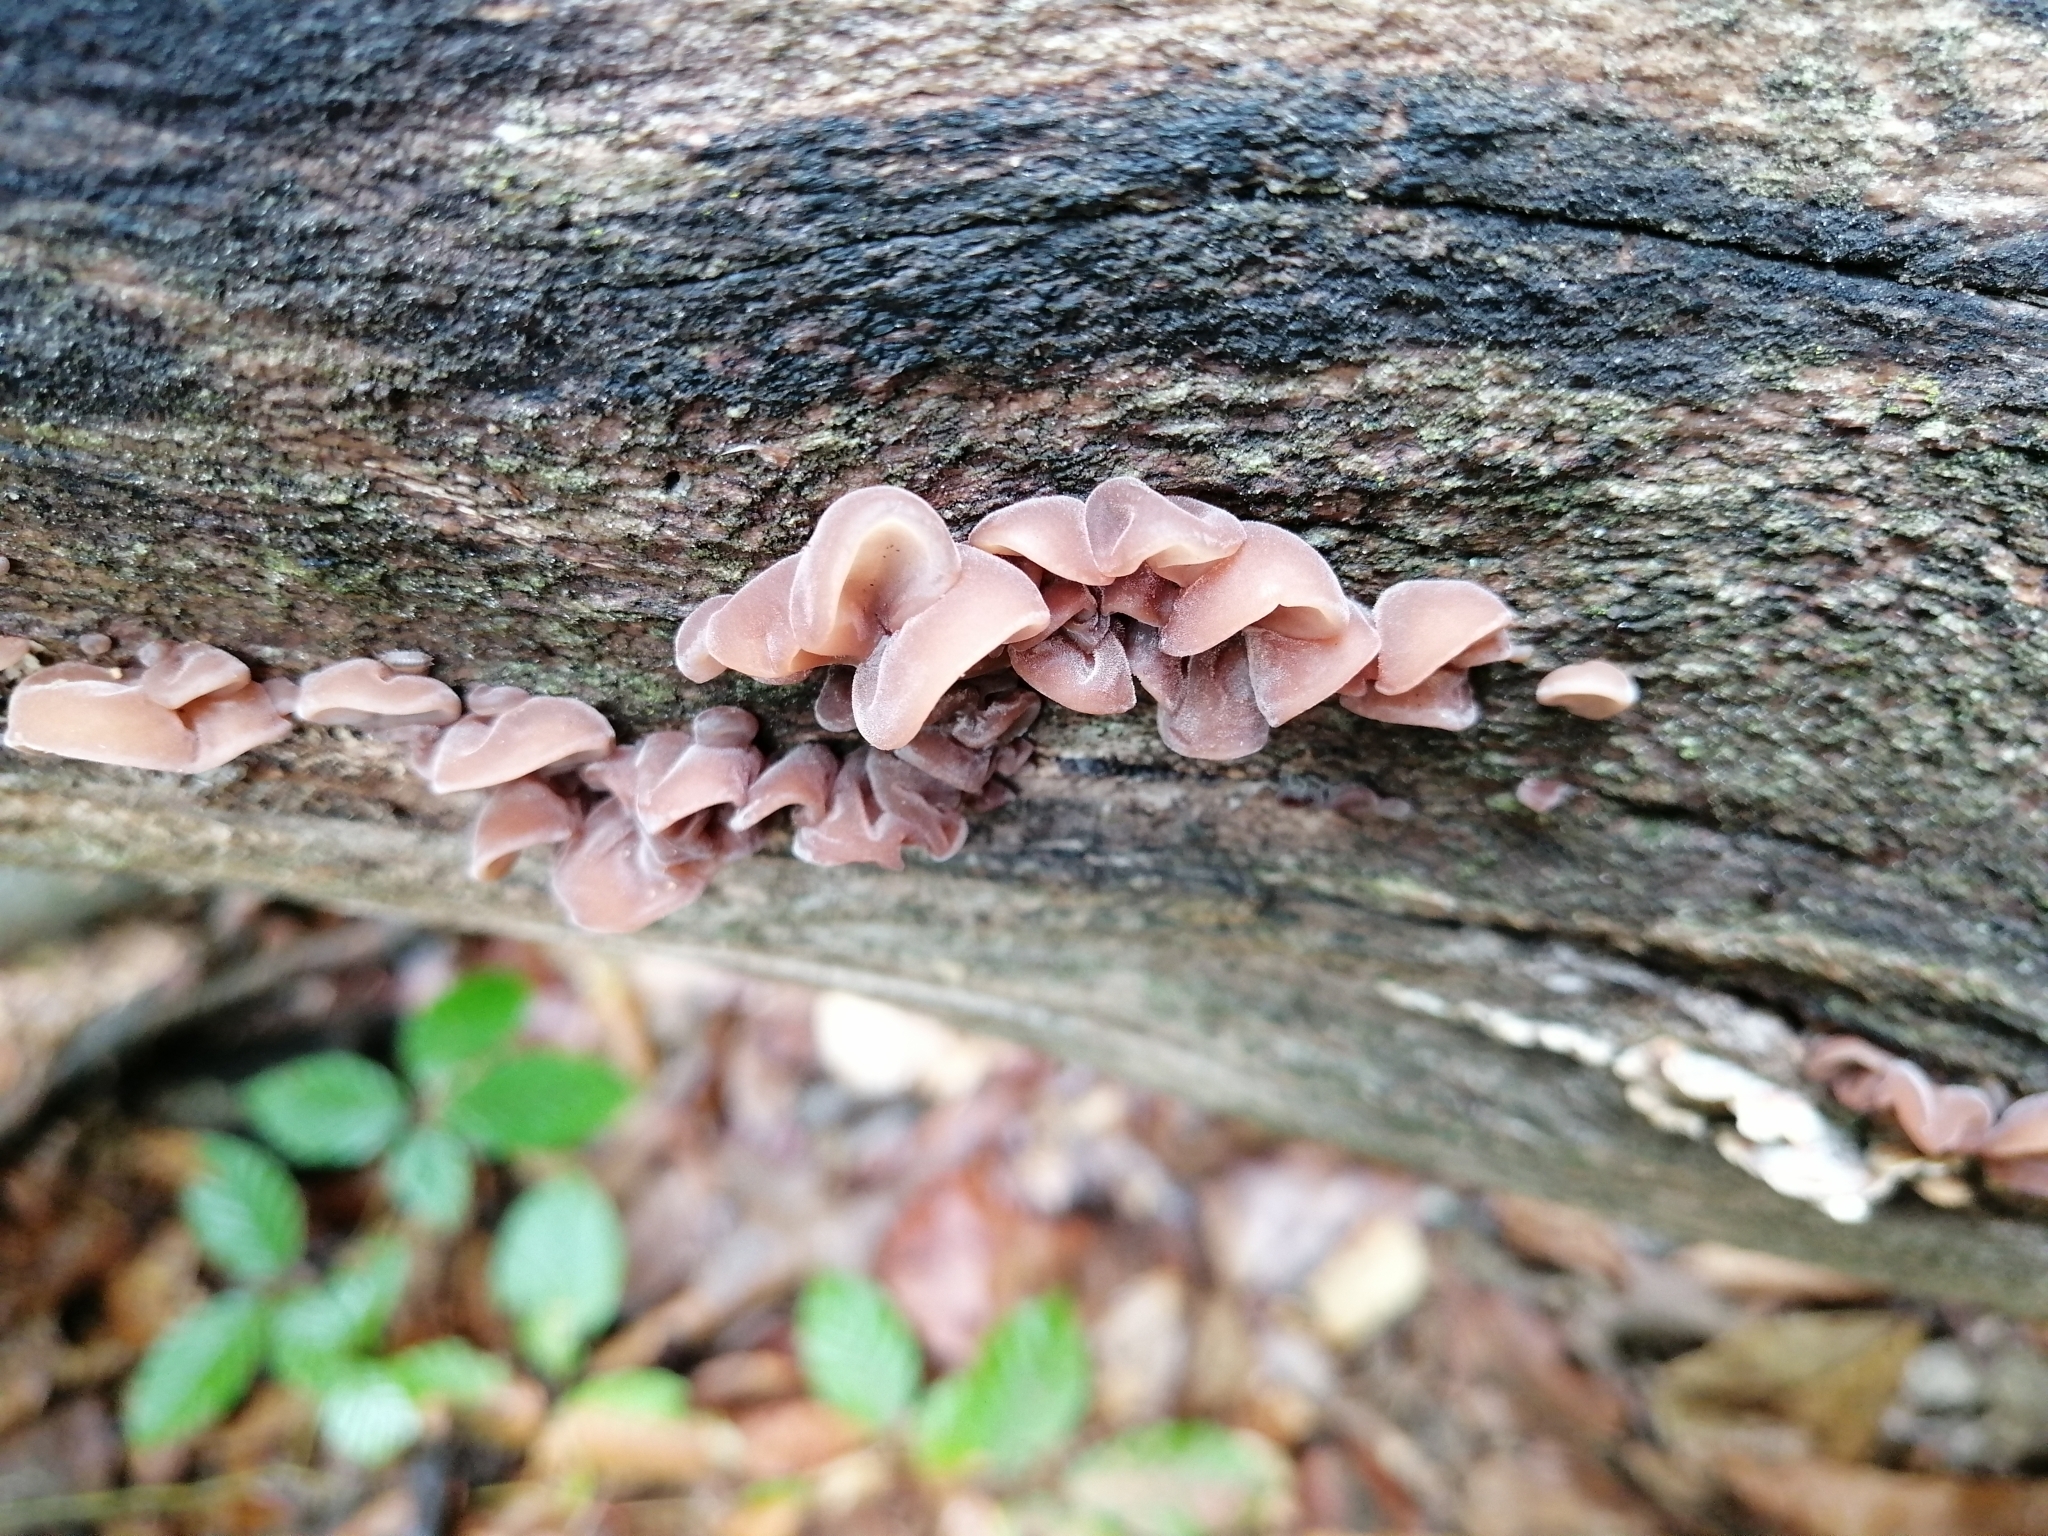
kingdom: Fungi
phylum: Basidiomycota
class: Agaricomycetes
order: Auriculariales
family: Auriculariaceae
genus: Auricularia
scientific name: Auricularia auricula-judae
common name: Jelly ear
